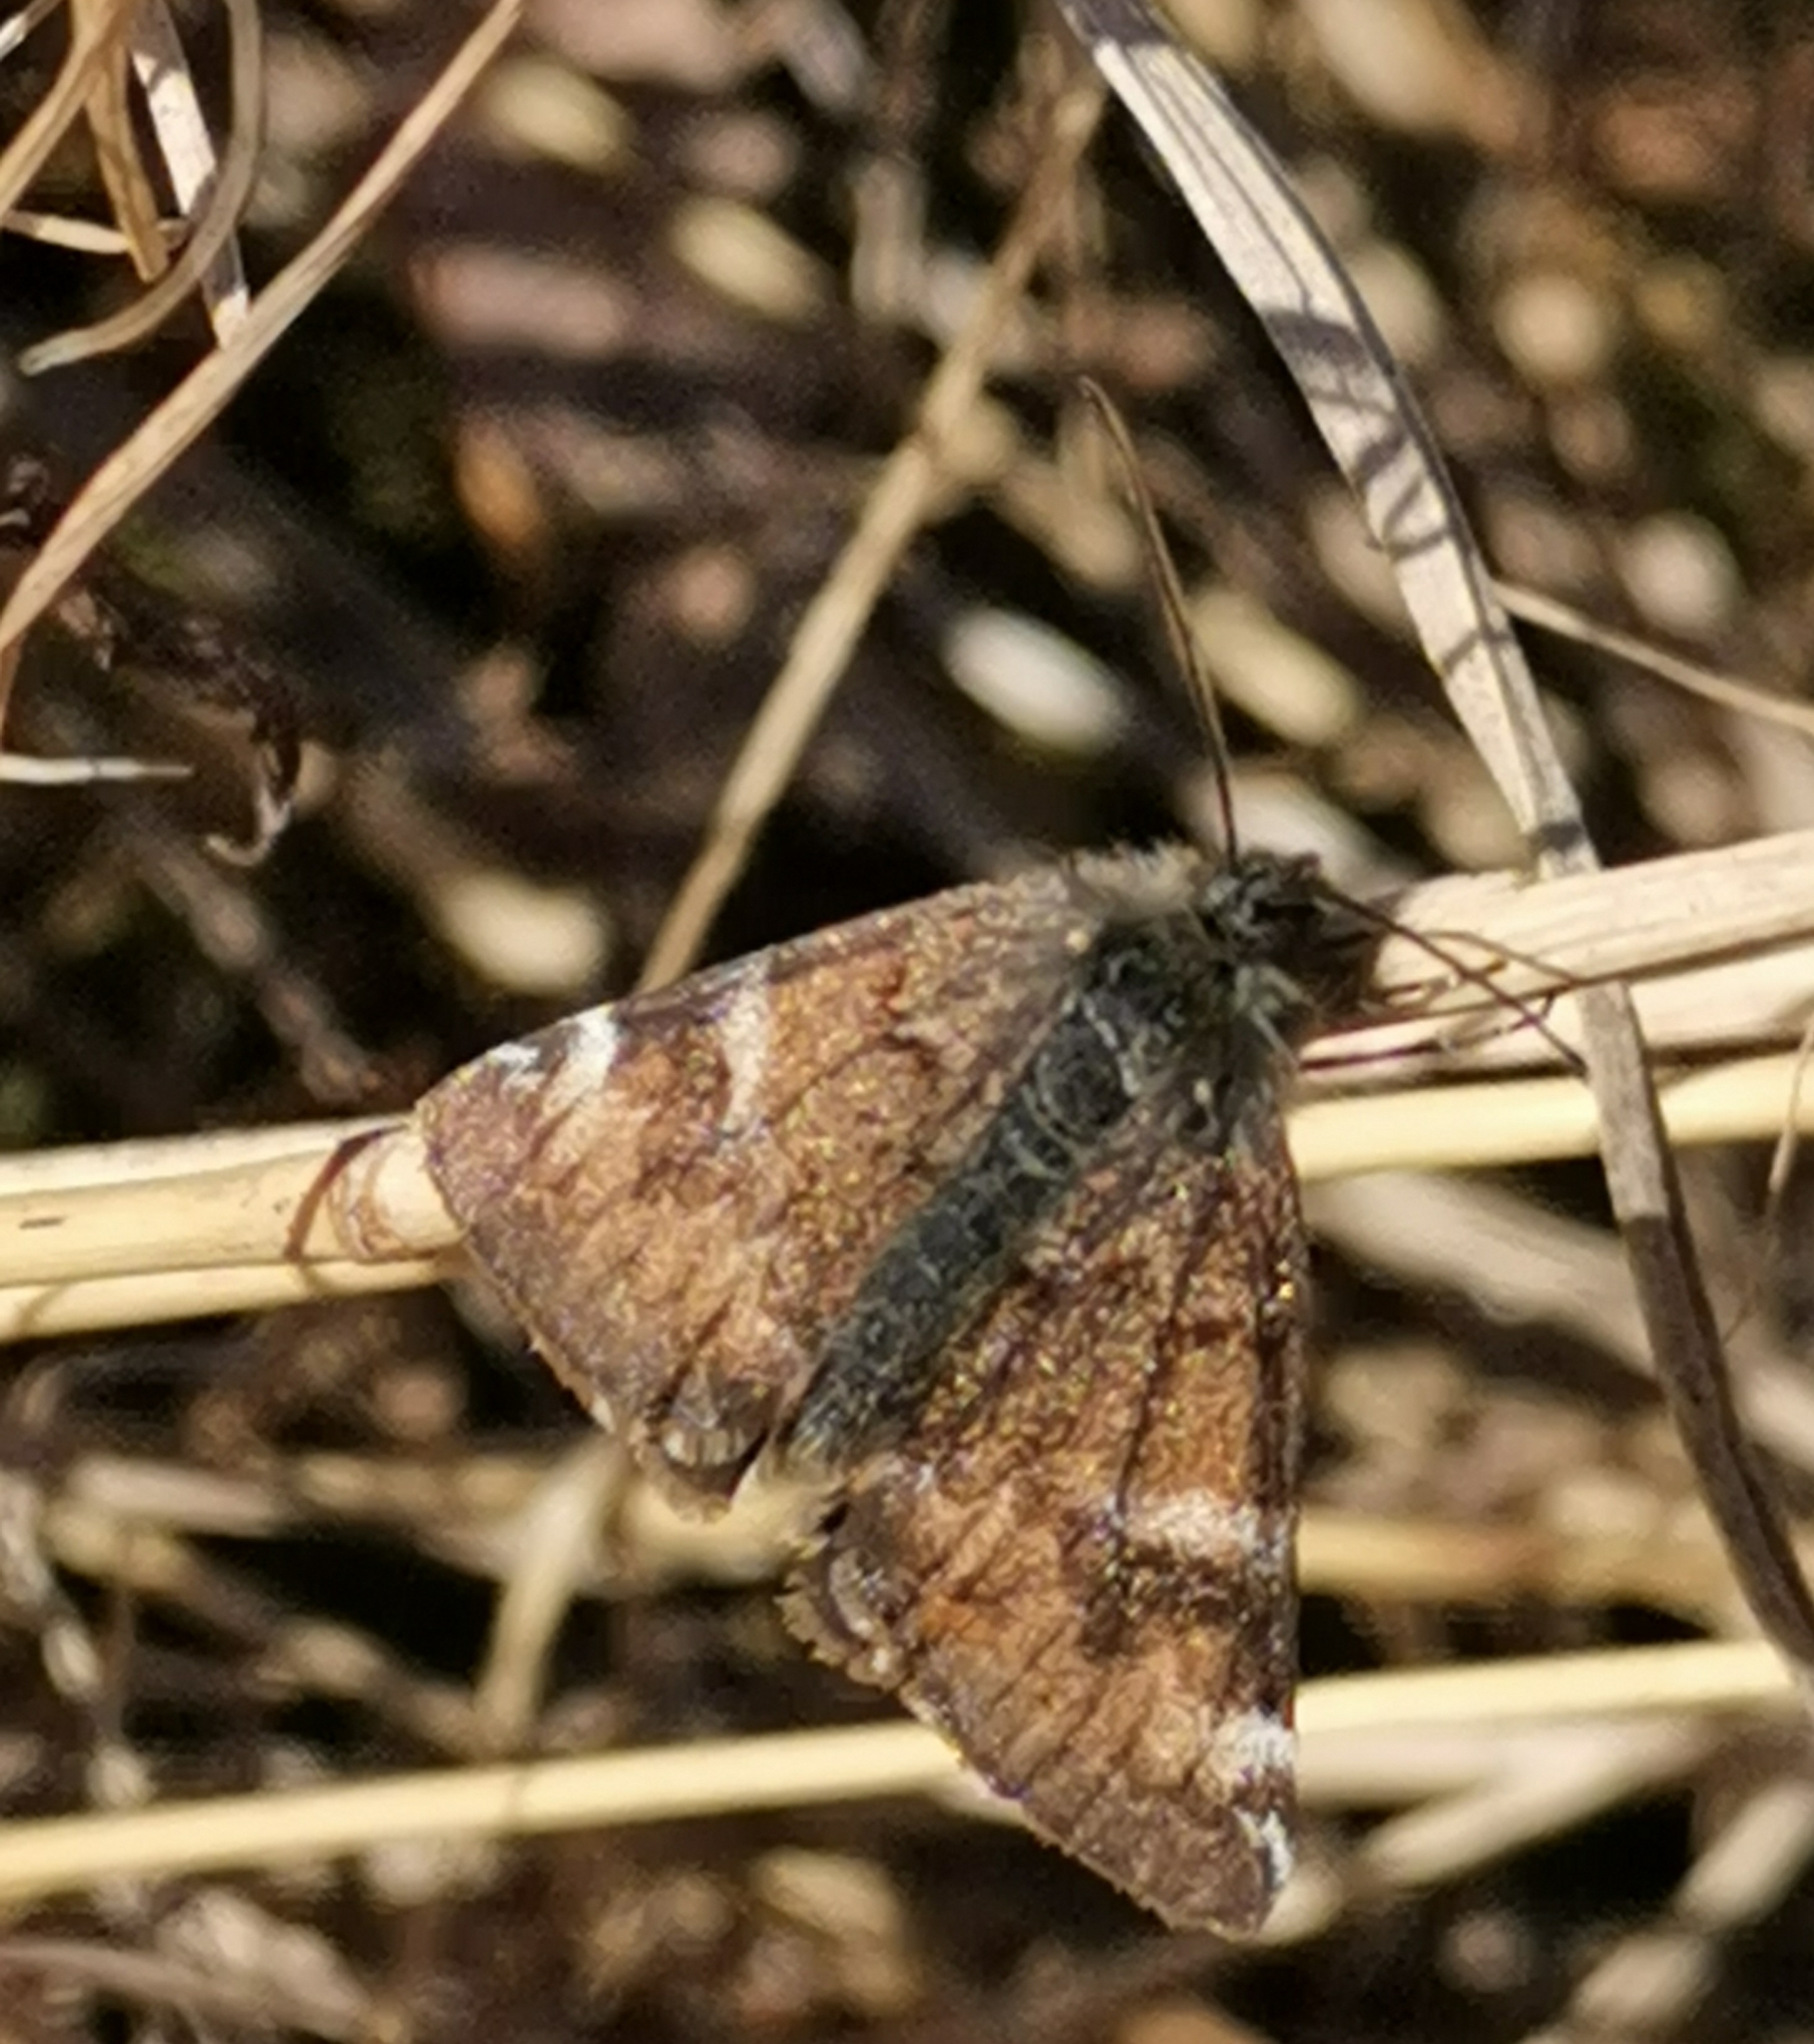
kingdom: Animalia
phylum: Arthropoda
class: Insecta
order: Lepidoptera
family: Geometridae
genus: Archiearis
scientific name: Archiearis parthenias
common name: Orange underwing
